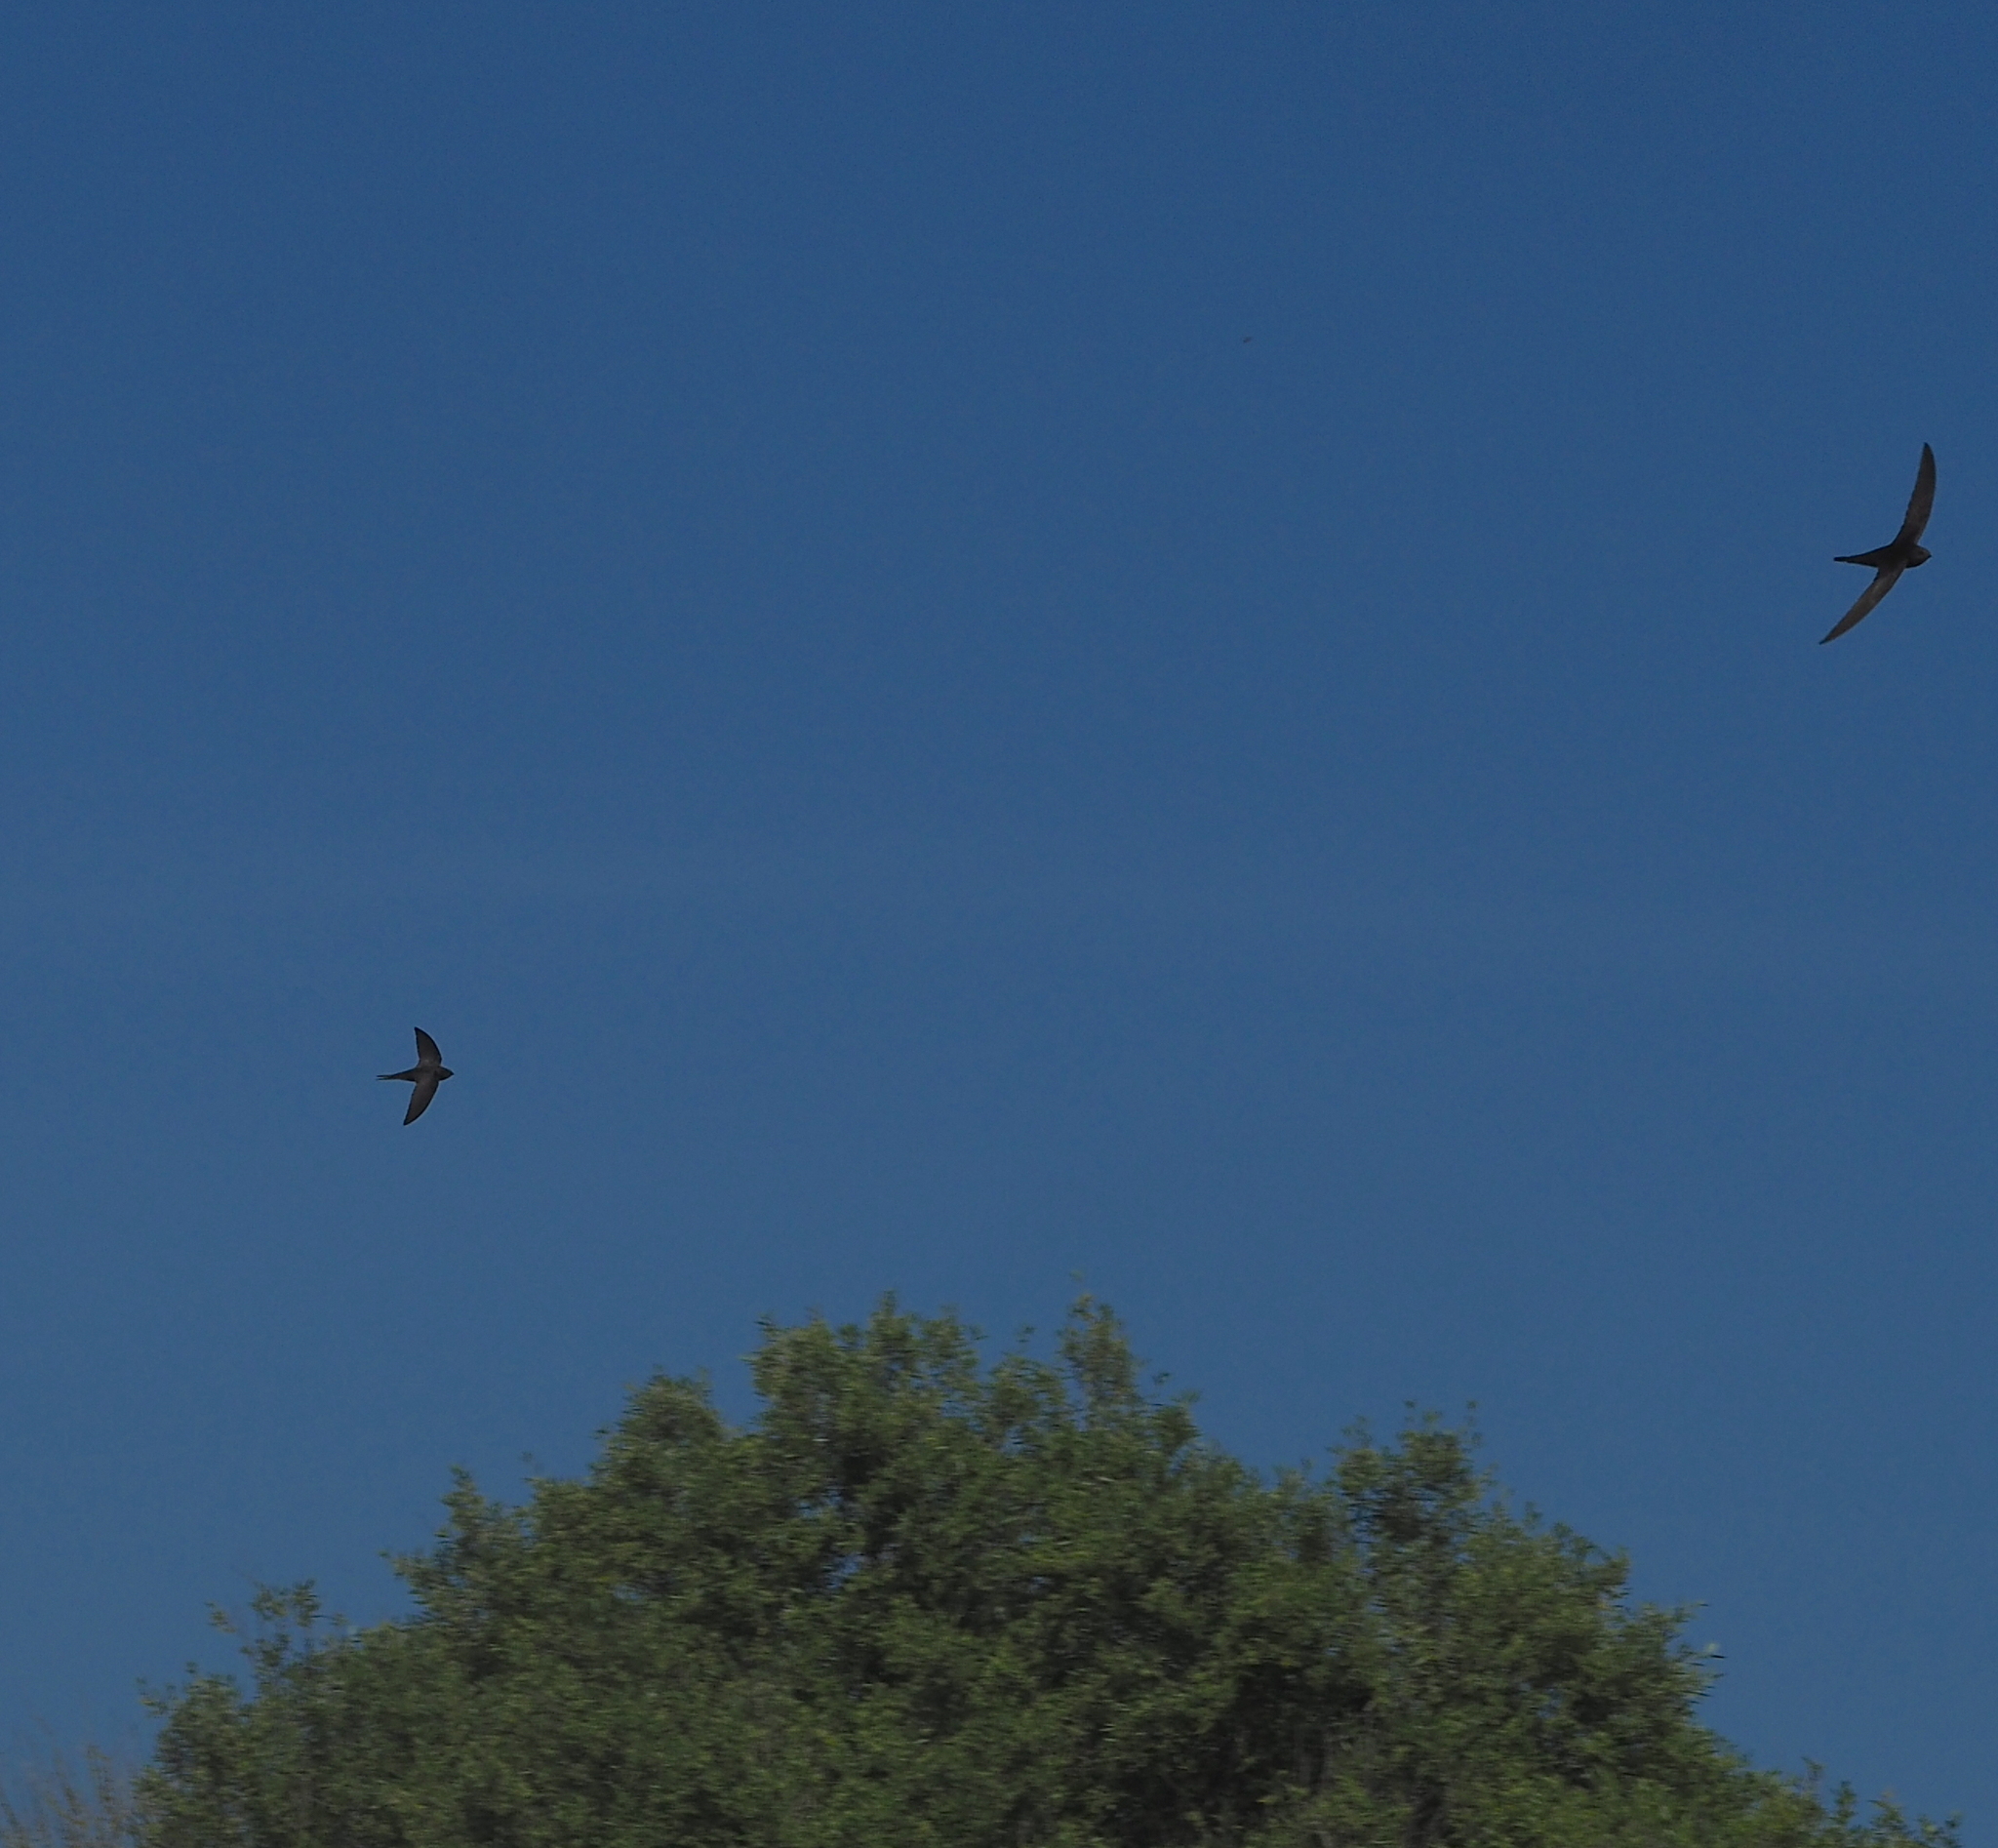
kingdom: Animalia
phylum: Chordata
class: Aves
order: Apodiformes
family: Apodidae
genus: Apus
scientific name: Apus apus
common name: Common swift
